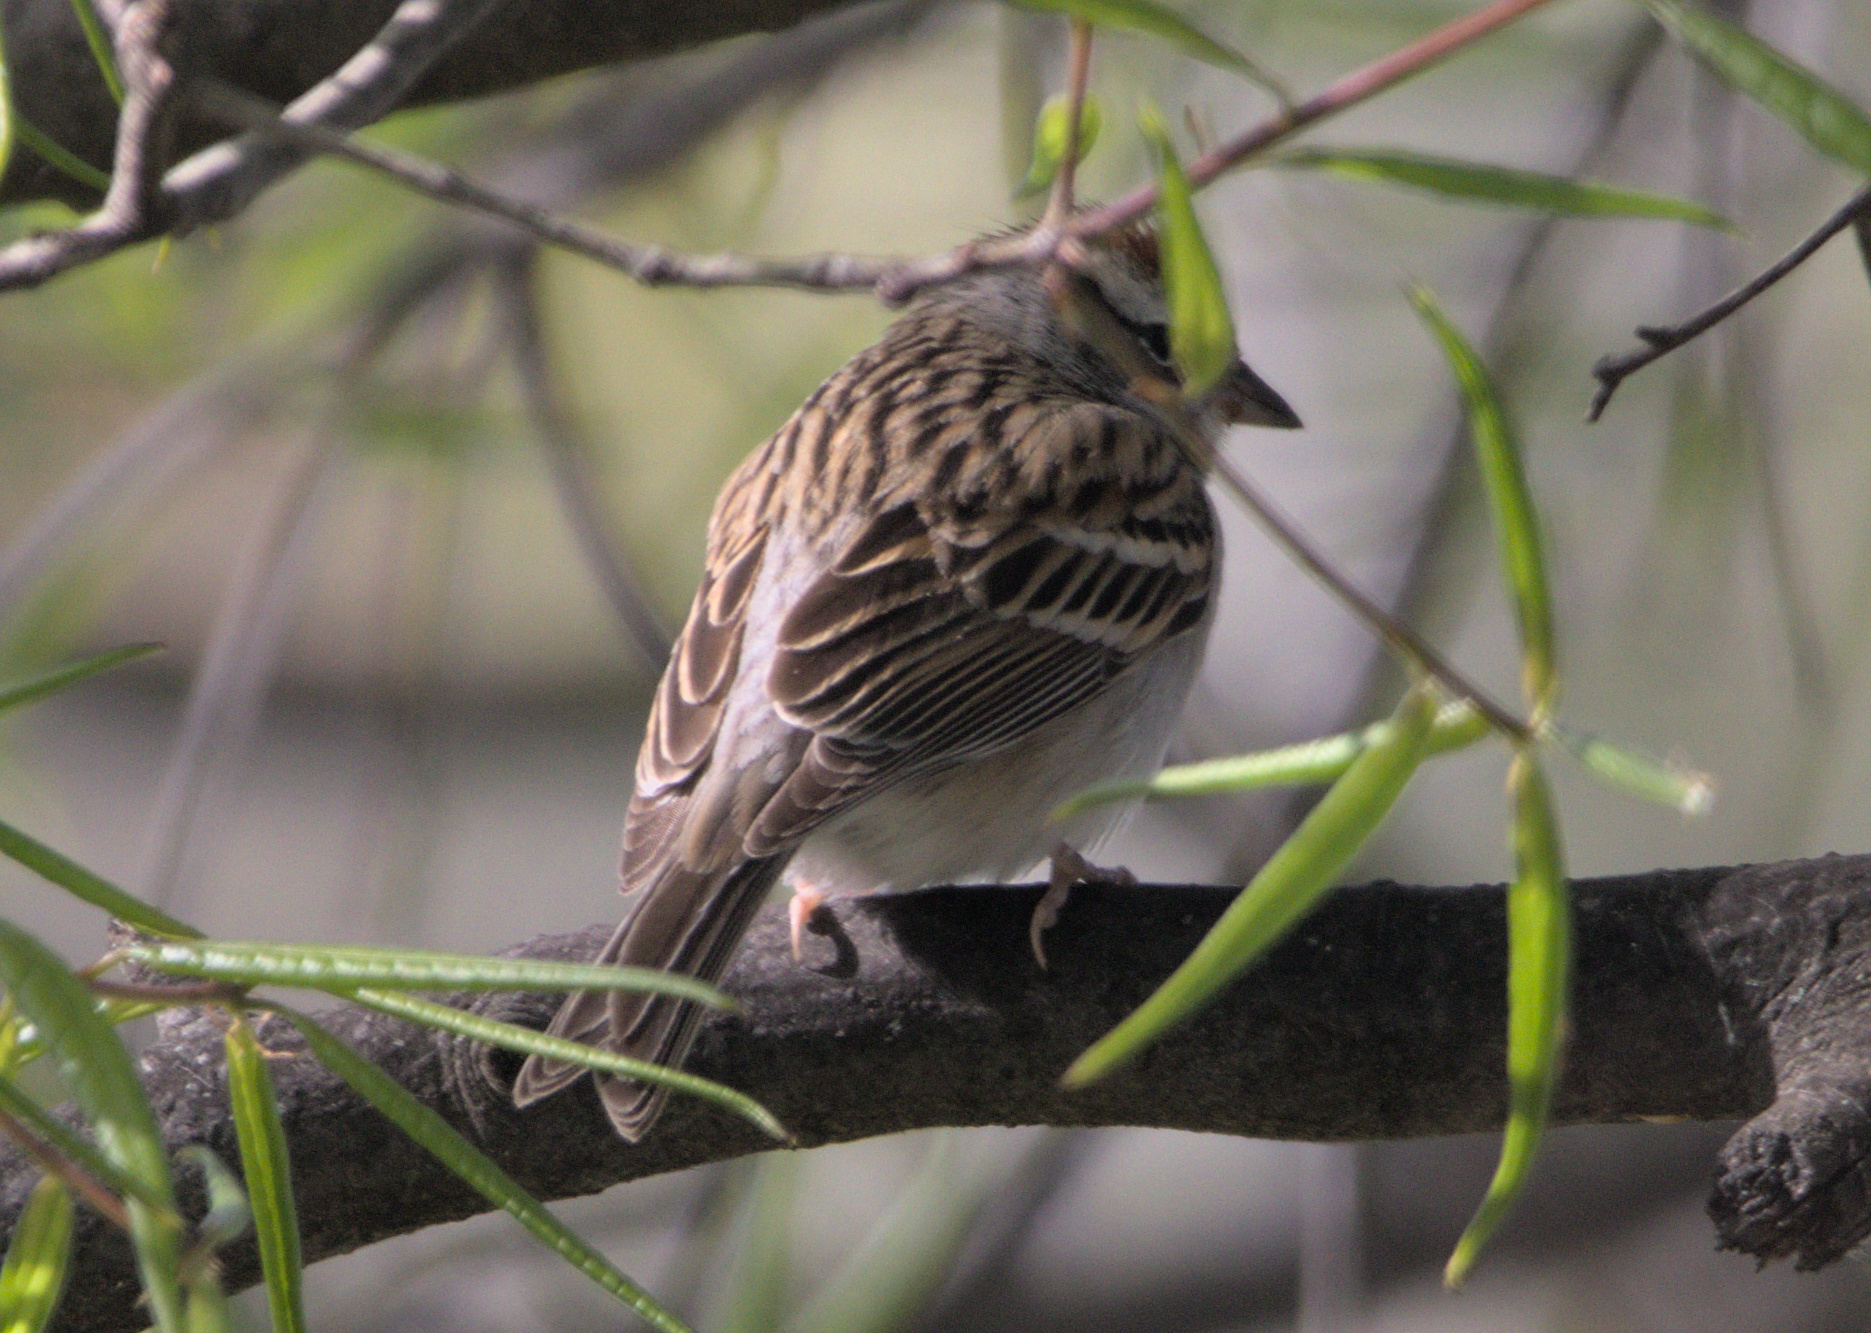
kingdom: Animalia
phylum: Chordata
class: Aves
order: Passeriformes
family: Passerellidae
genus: Spizella
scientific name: Spizella passerina
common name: Chipping sparrow
